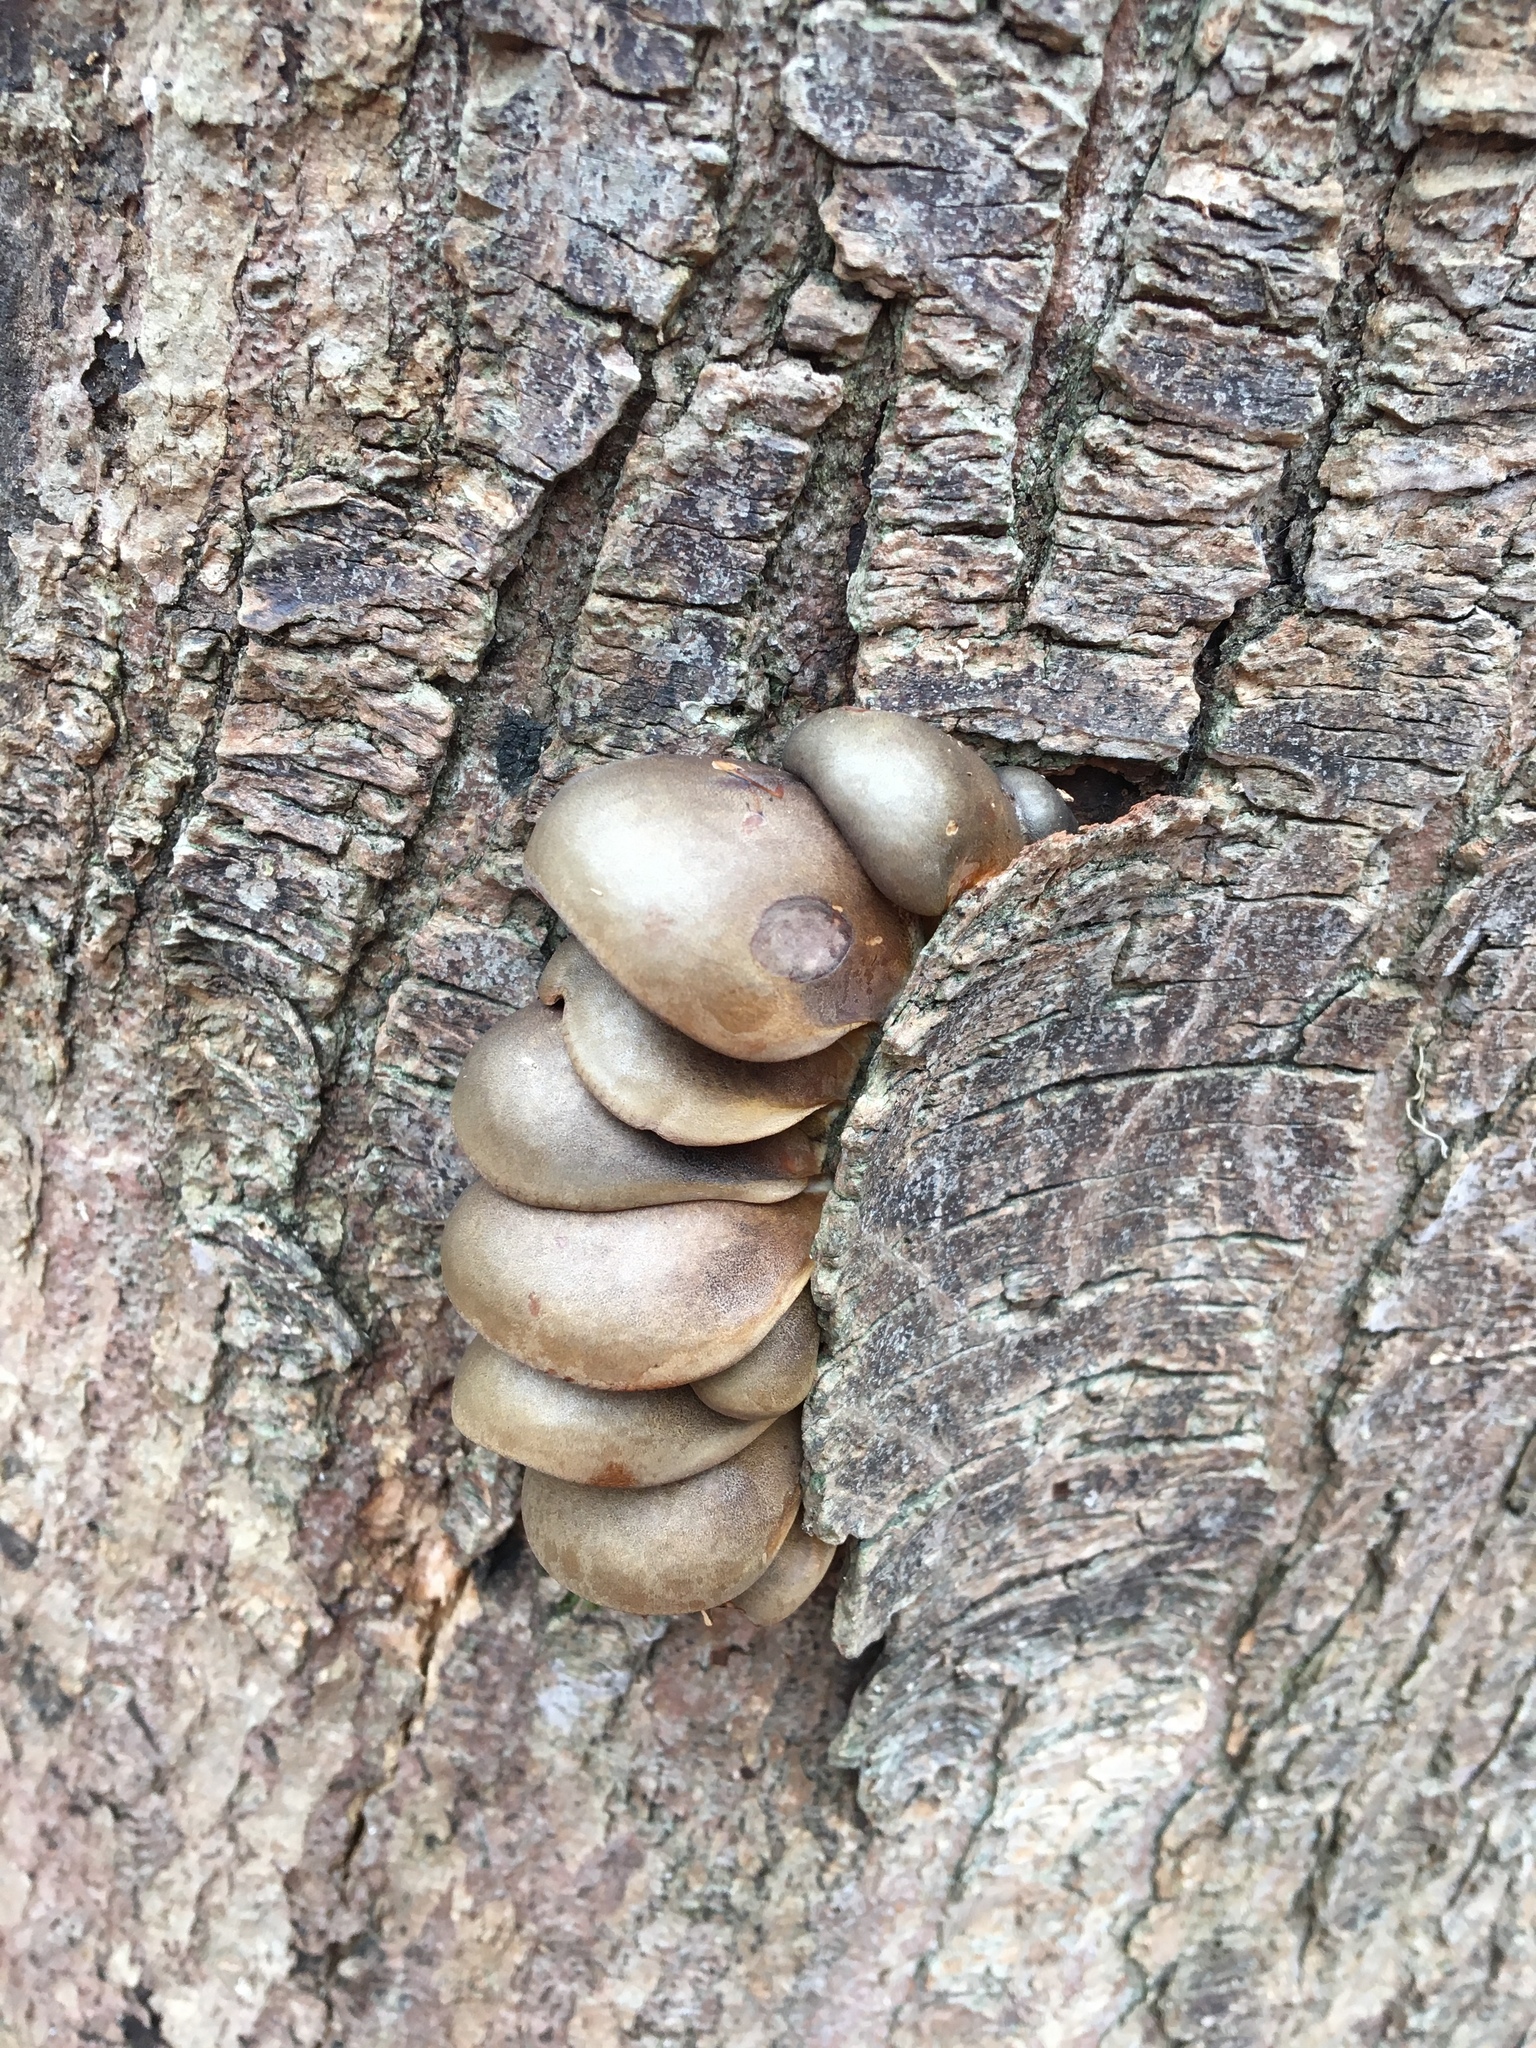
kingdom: Fungi
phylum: Basidiomycota
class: Agaricomycetes
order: Agaricales
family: Sarcomyxaceae
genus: Sarcomyxa
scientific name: Sarcomyxa serotina
